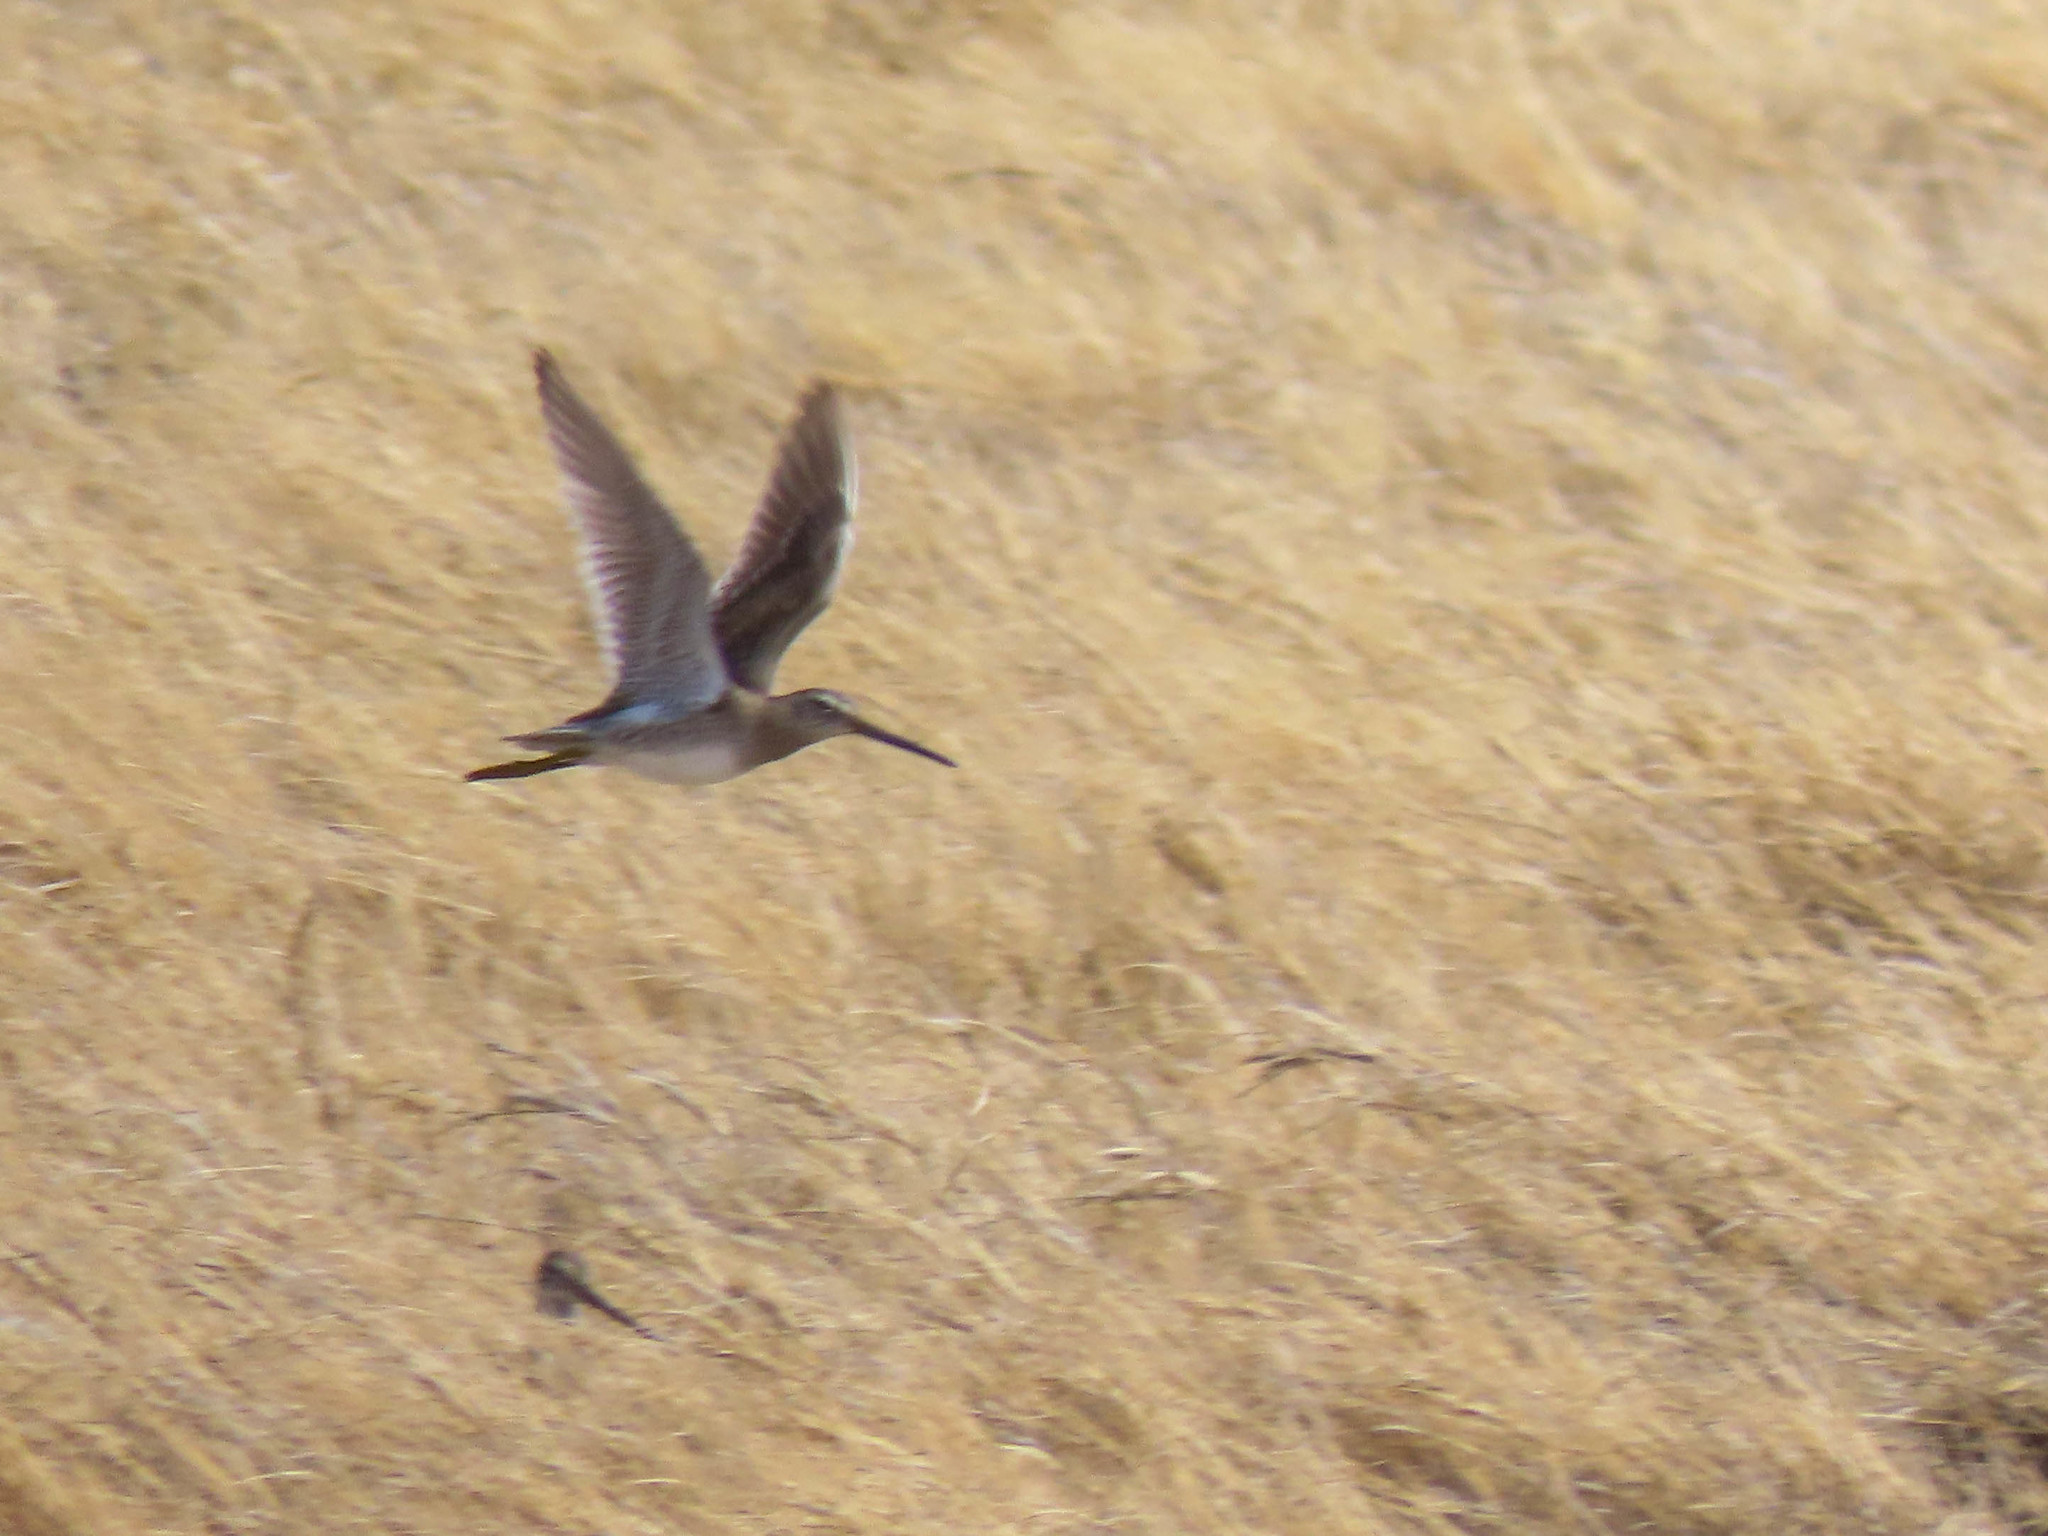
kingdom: Animalia
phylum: Chordata
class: Aves
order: Charadriiformes
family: Scolopacidae
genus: Limnodromus
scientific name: Limnodromus scolopaceus
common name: Long-billed dowitcher
